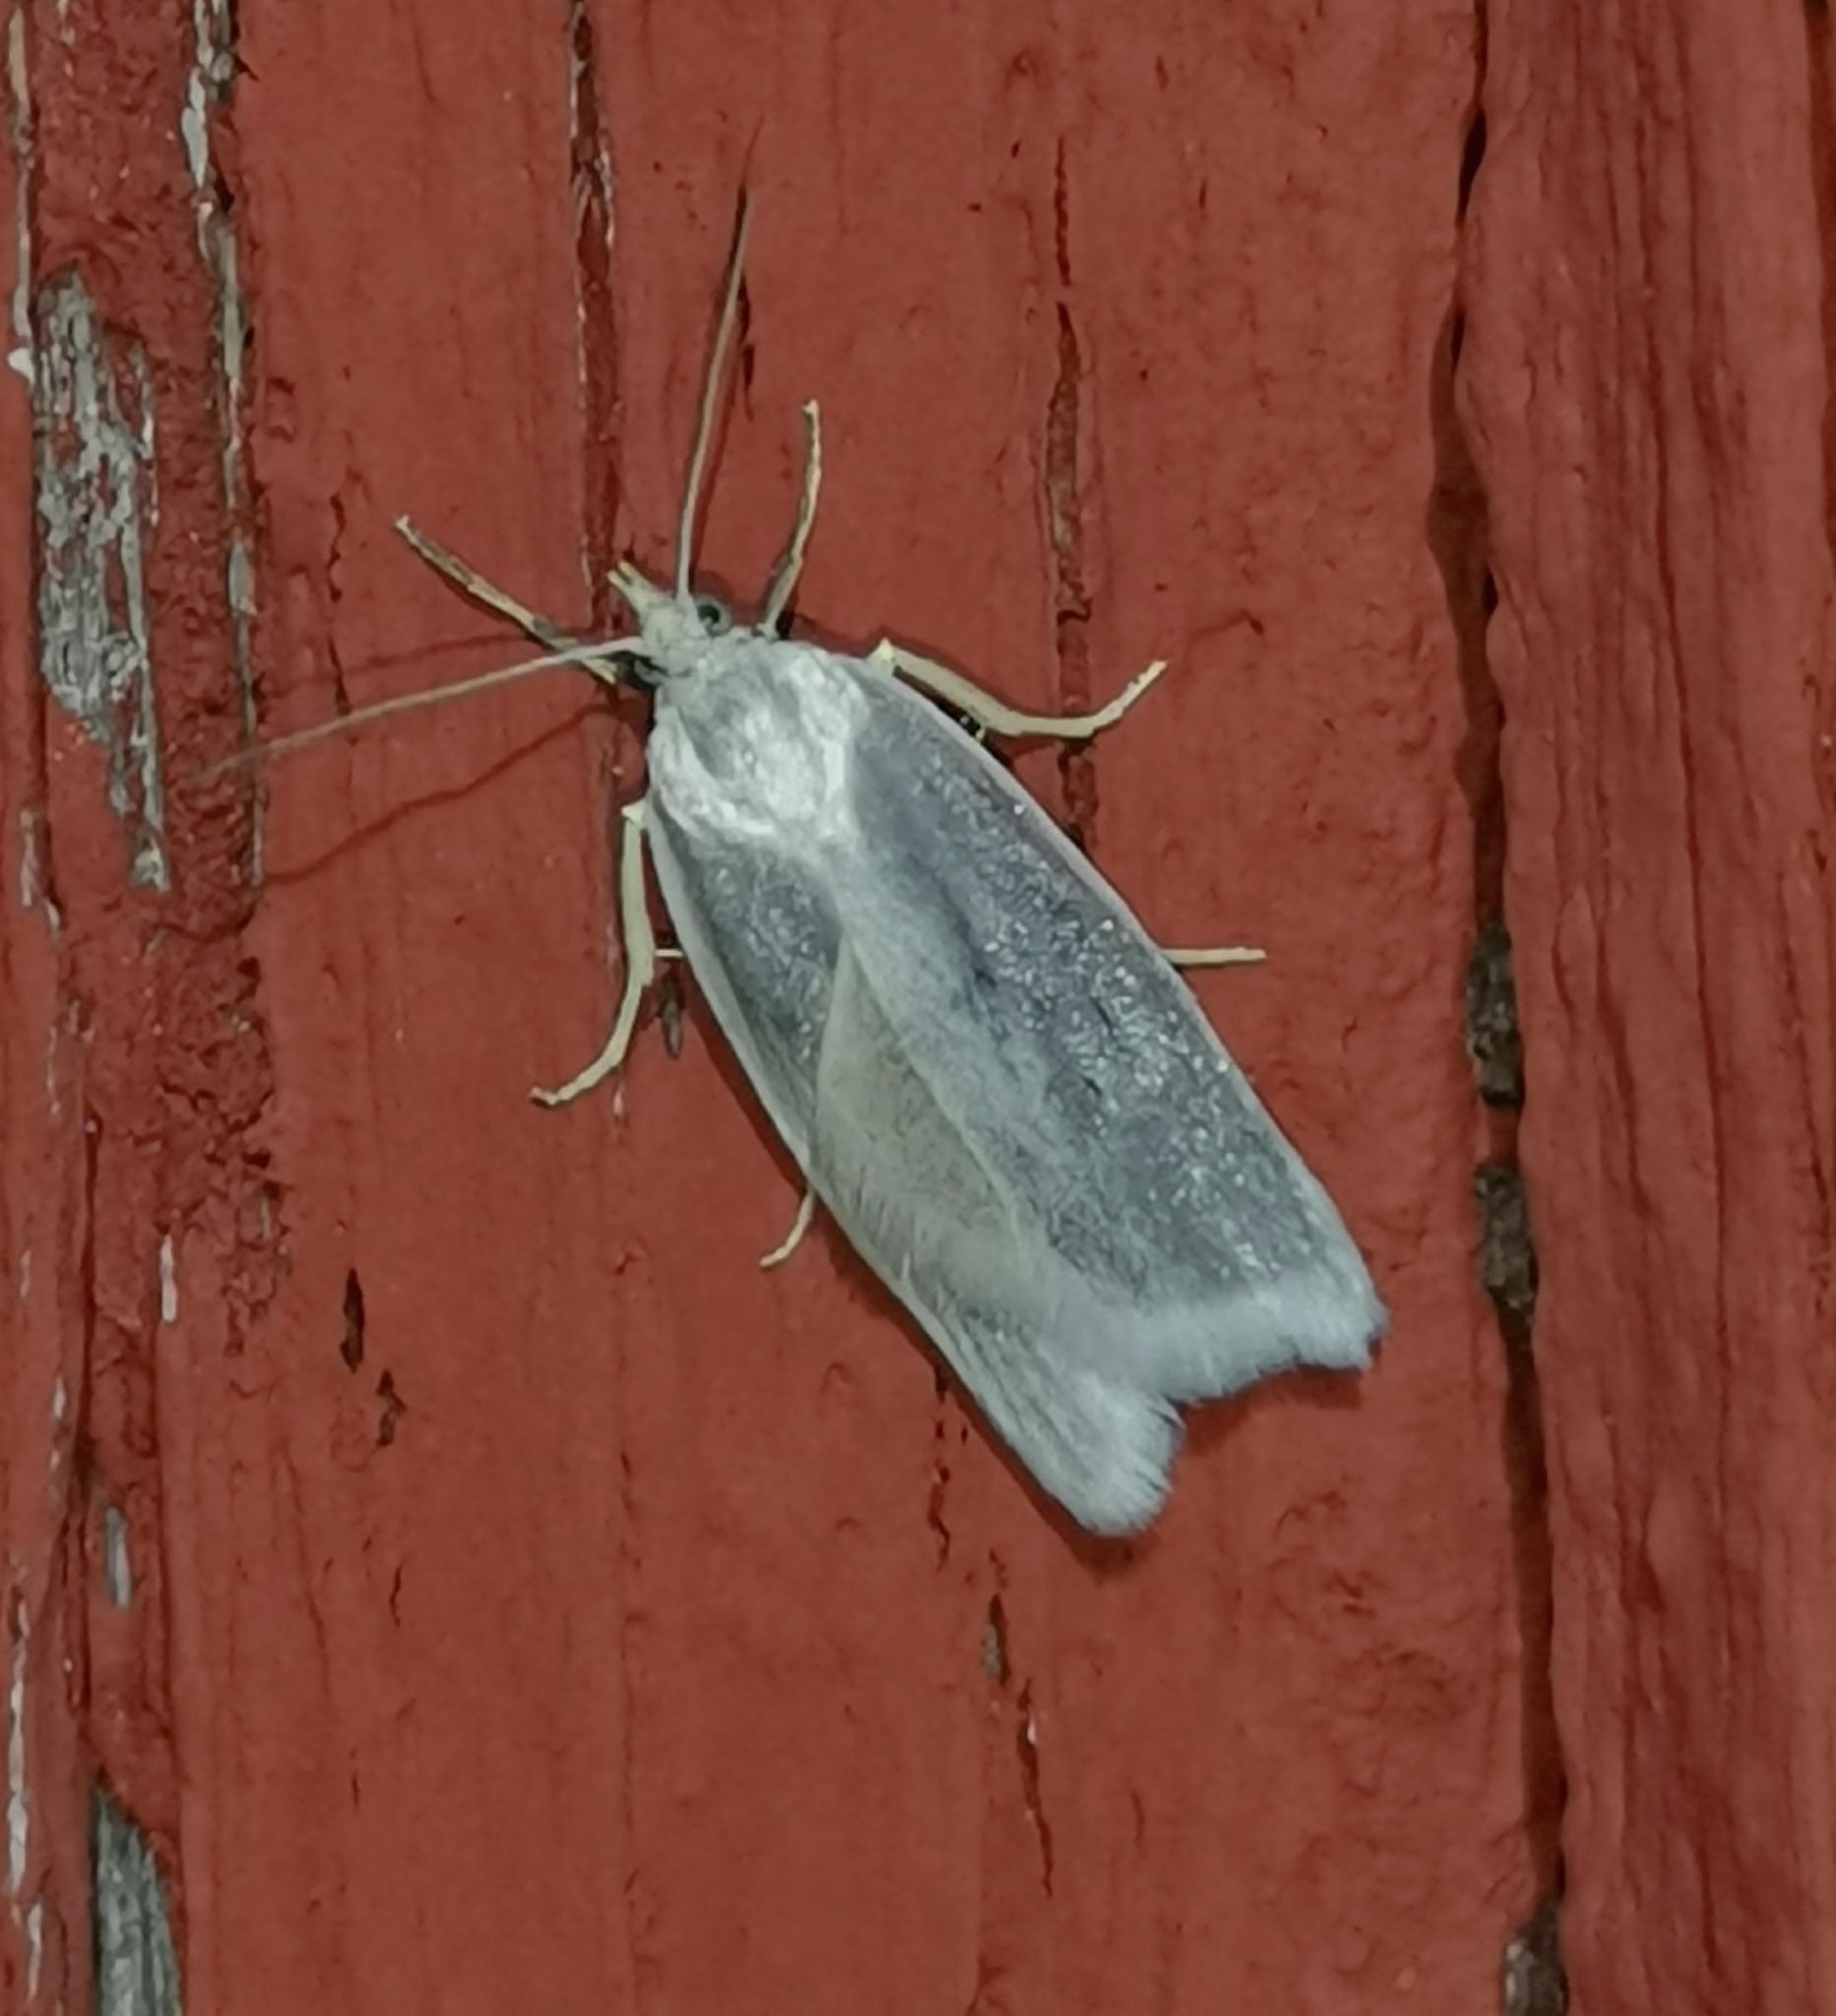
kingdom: Animalia
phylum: Arthropoda
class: Insecta
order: Lepidoptera
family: Tortricidae
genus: Eana
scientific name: Eana argentana
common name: Silver shade
